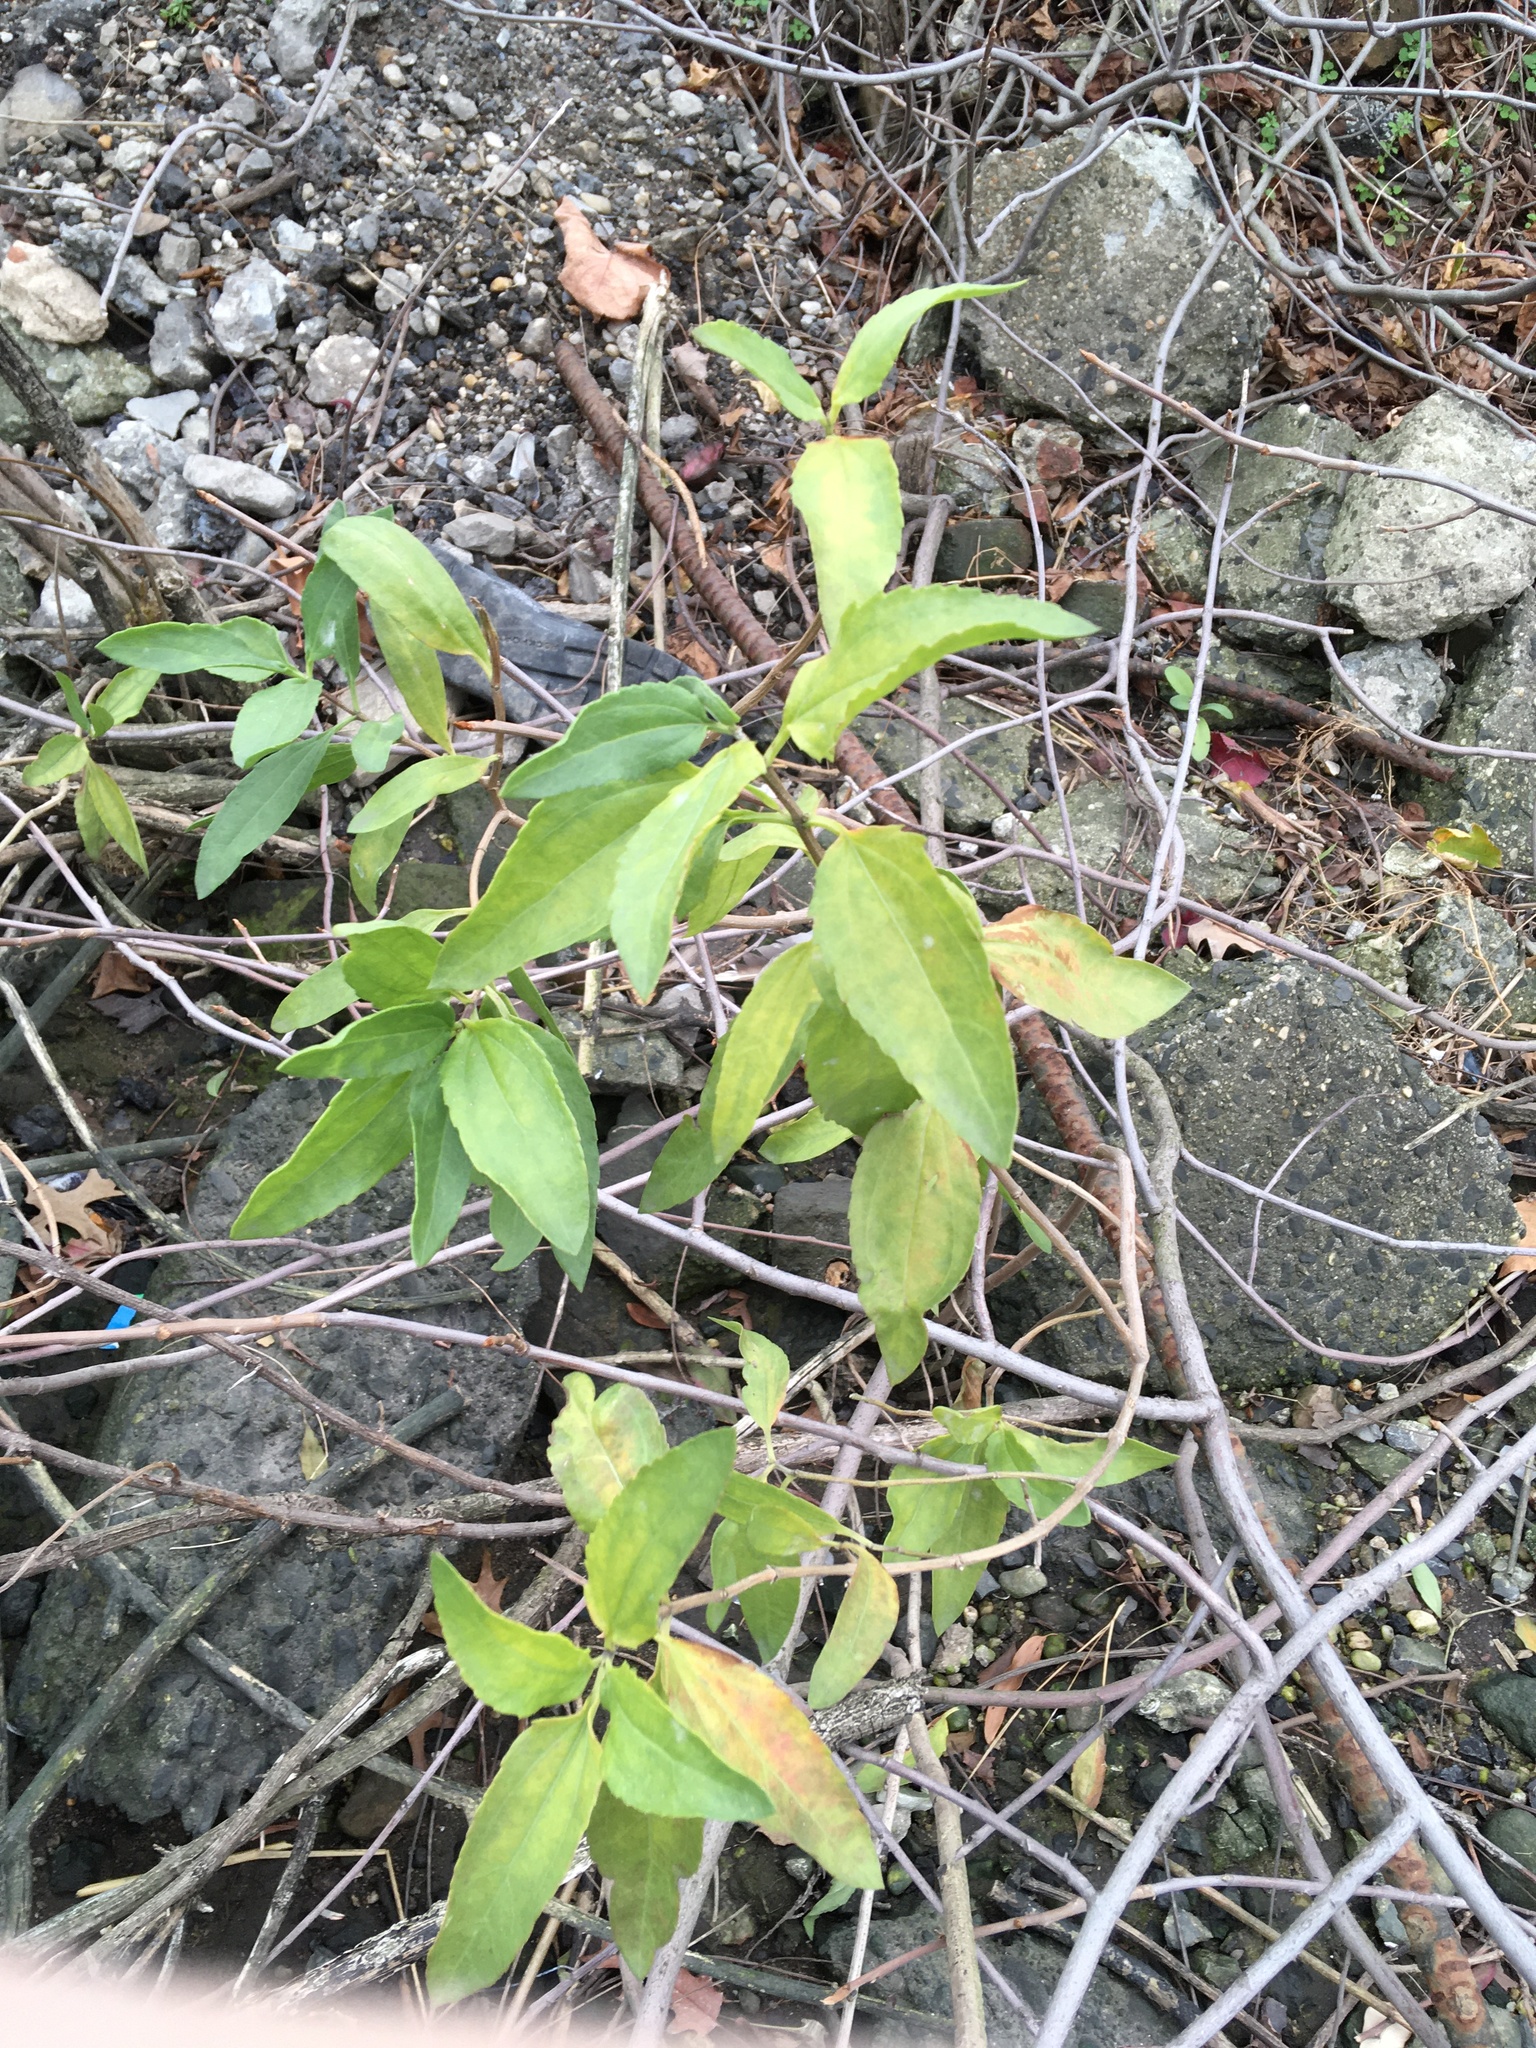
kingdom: Plantae
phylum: Tracheophyta
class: Magnoliopsida
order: Asterales
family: Asteraceae
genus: Iva
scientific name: Iva frutescens
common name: Big-leaved marsh-elder
